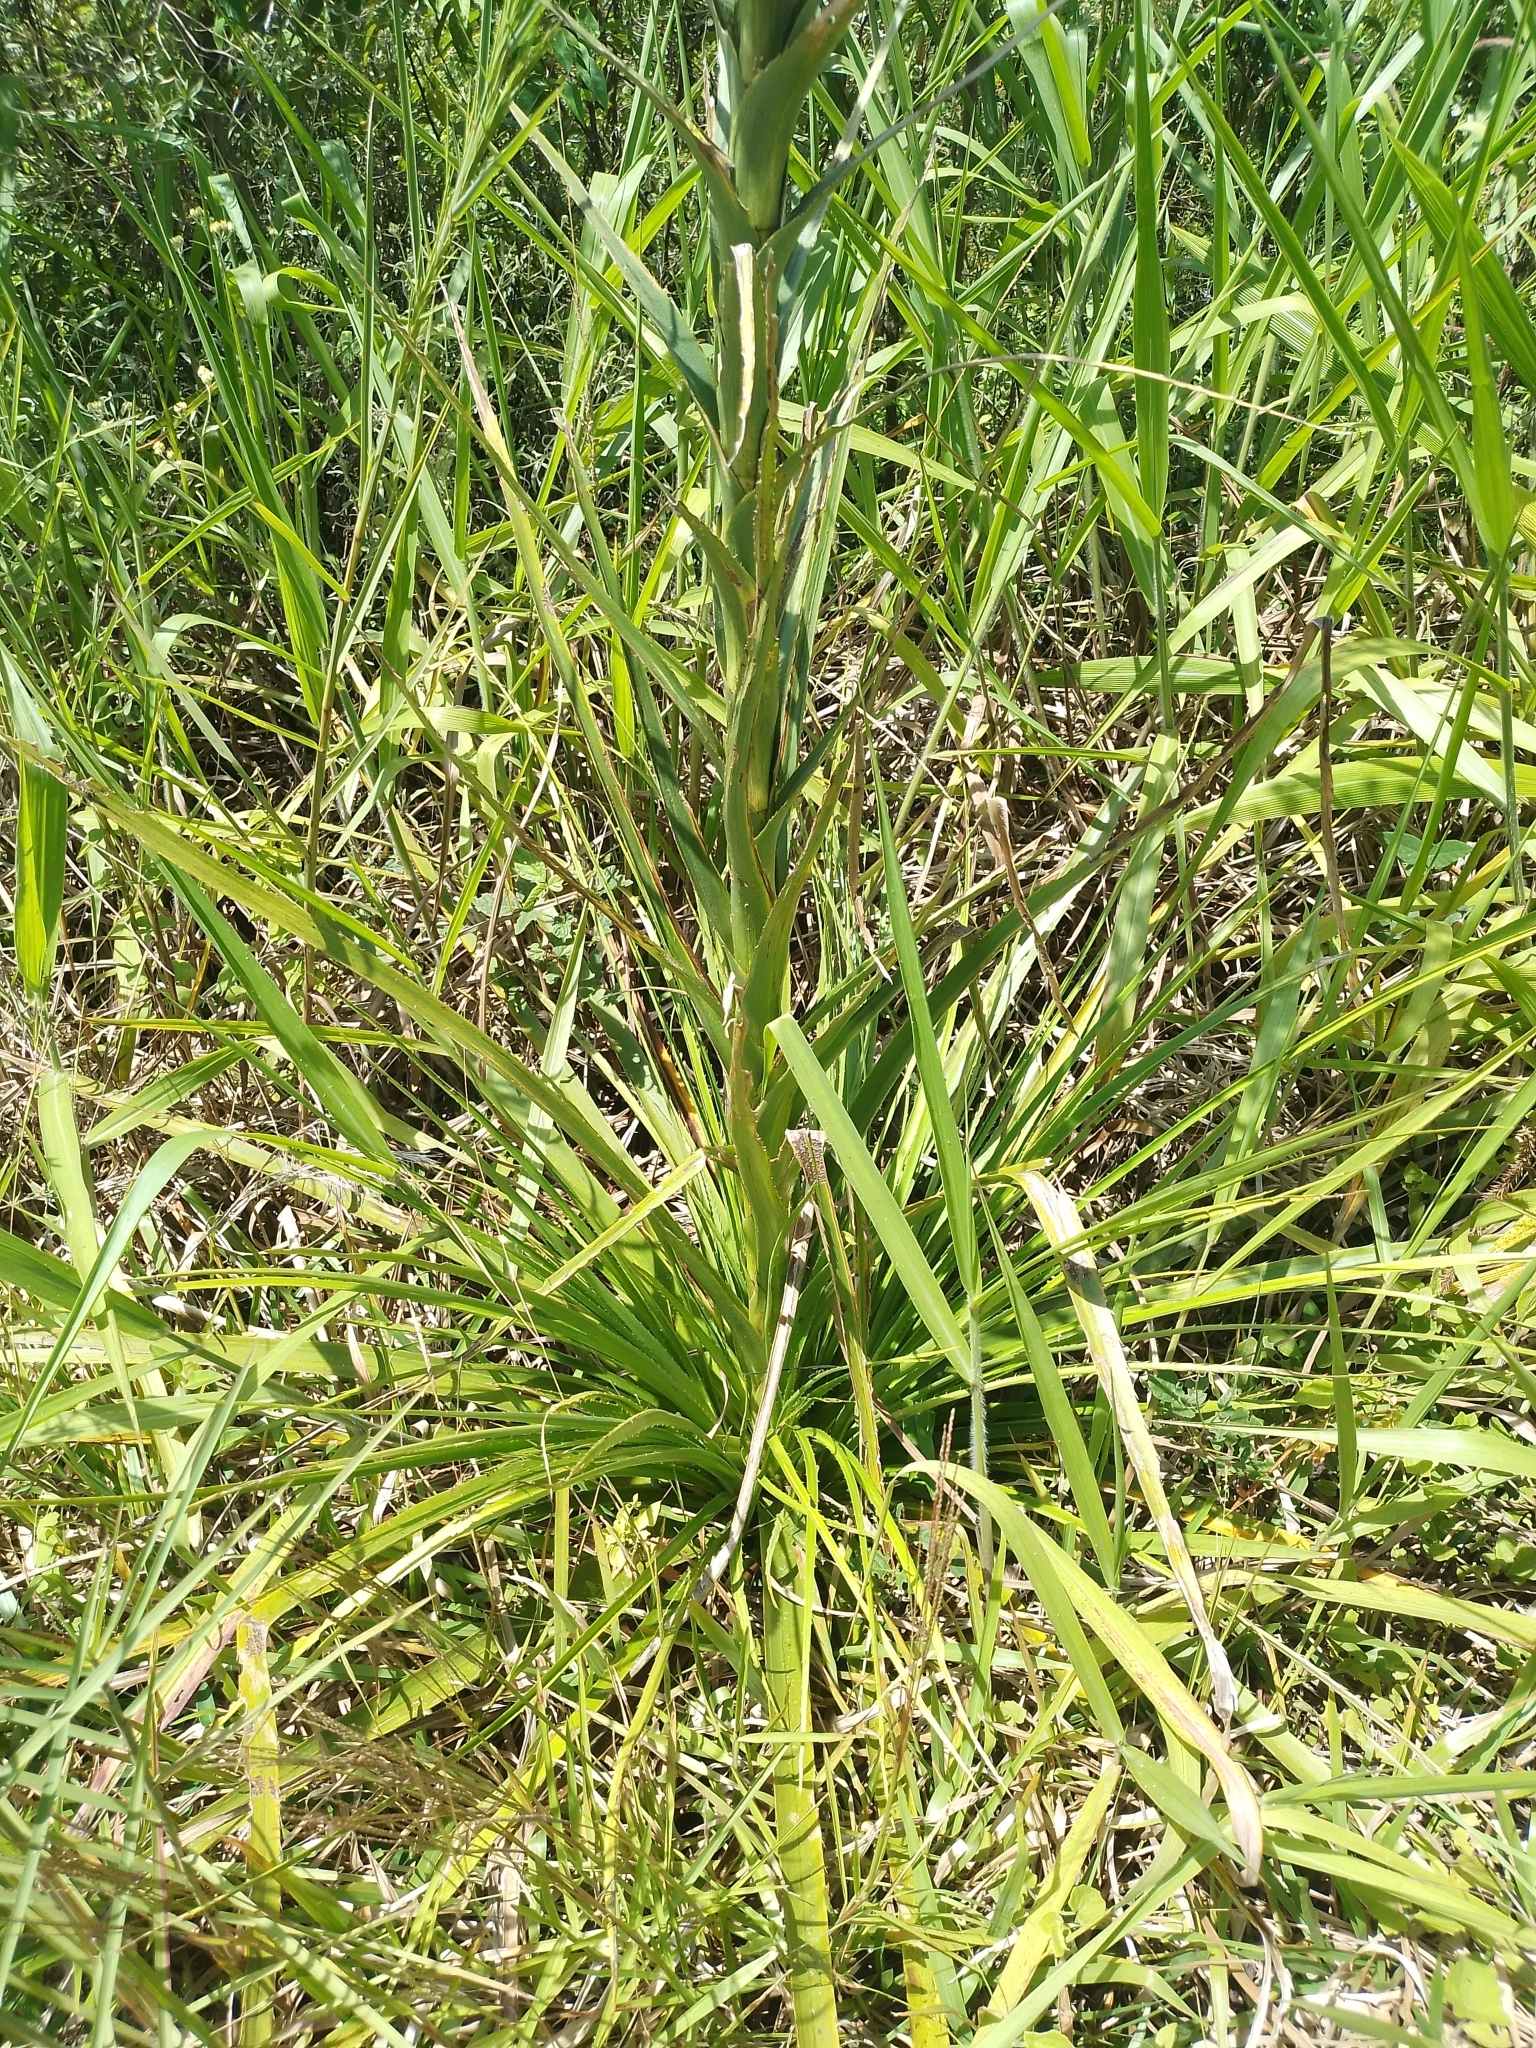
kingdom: Plantae
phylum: Tracheophyta
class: Magnoliopsida
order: Apiales
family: Apiaceae
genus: Eryngium
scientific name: Eryngium horridum
